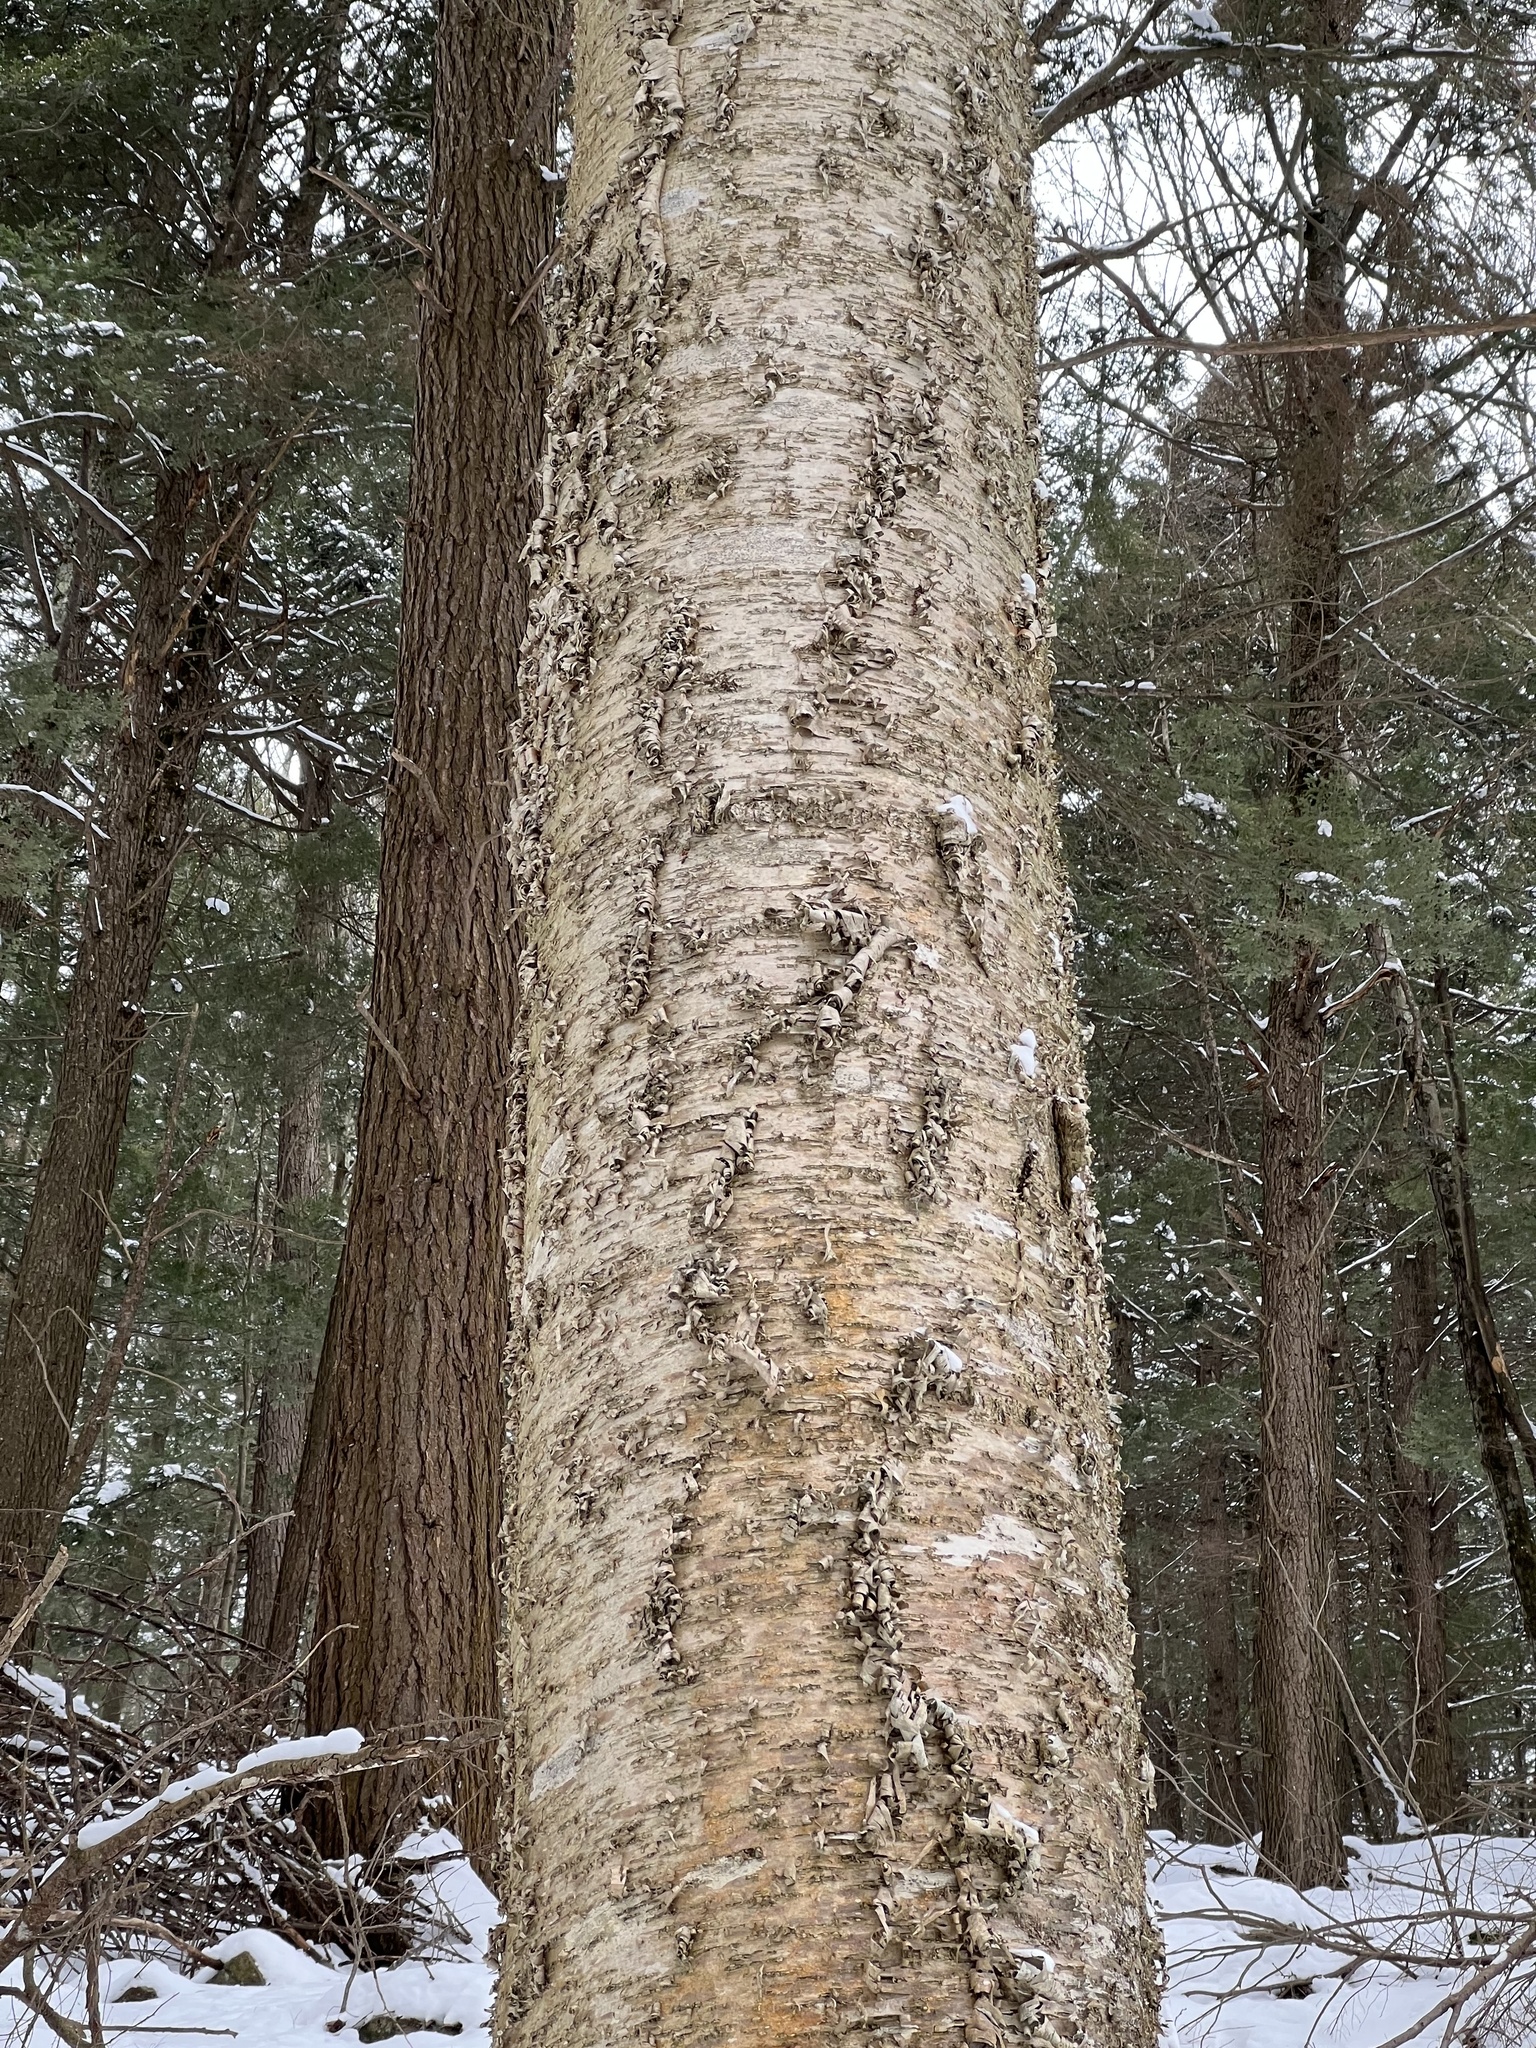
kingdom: Plantae
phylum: Tracheophyta
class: Magnoliopsida
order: Fagales
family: Betulaceae
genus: Betula
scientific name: Betula alleghaniensis
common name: Yellow birch
